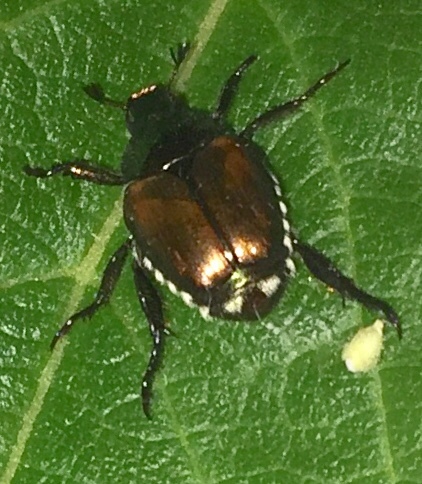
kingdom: Animalia
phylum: Arthropoda
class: Insecta
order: Coleoptera
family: Scarabaeidae
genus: Popillia
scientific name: Popillia japonica
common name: Japanese beetle
